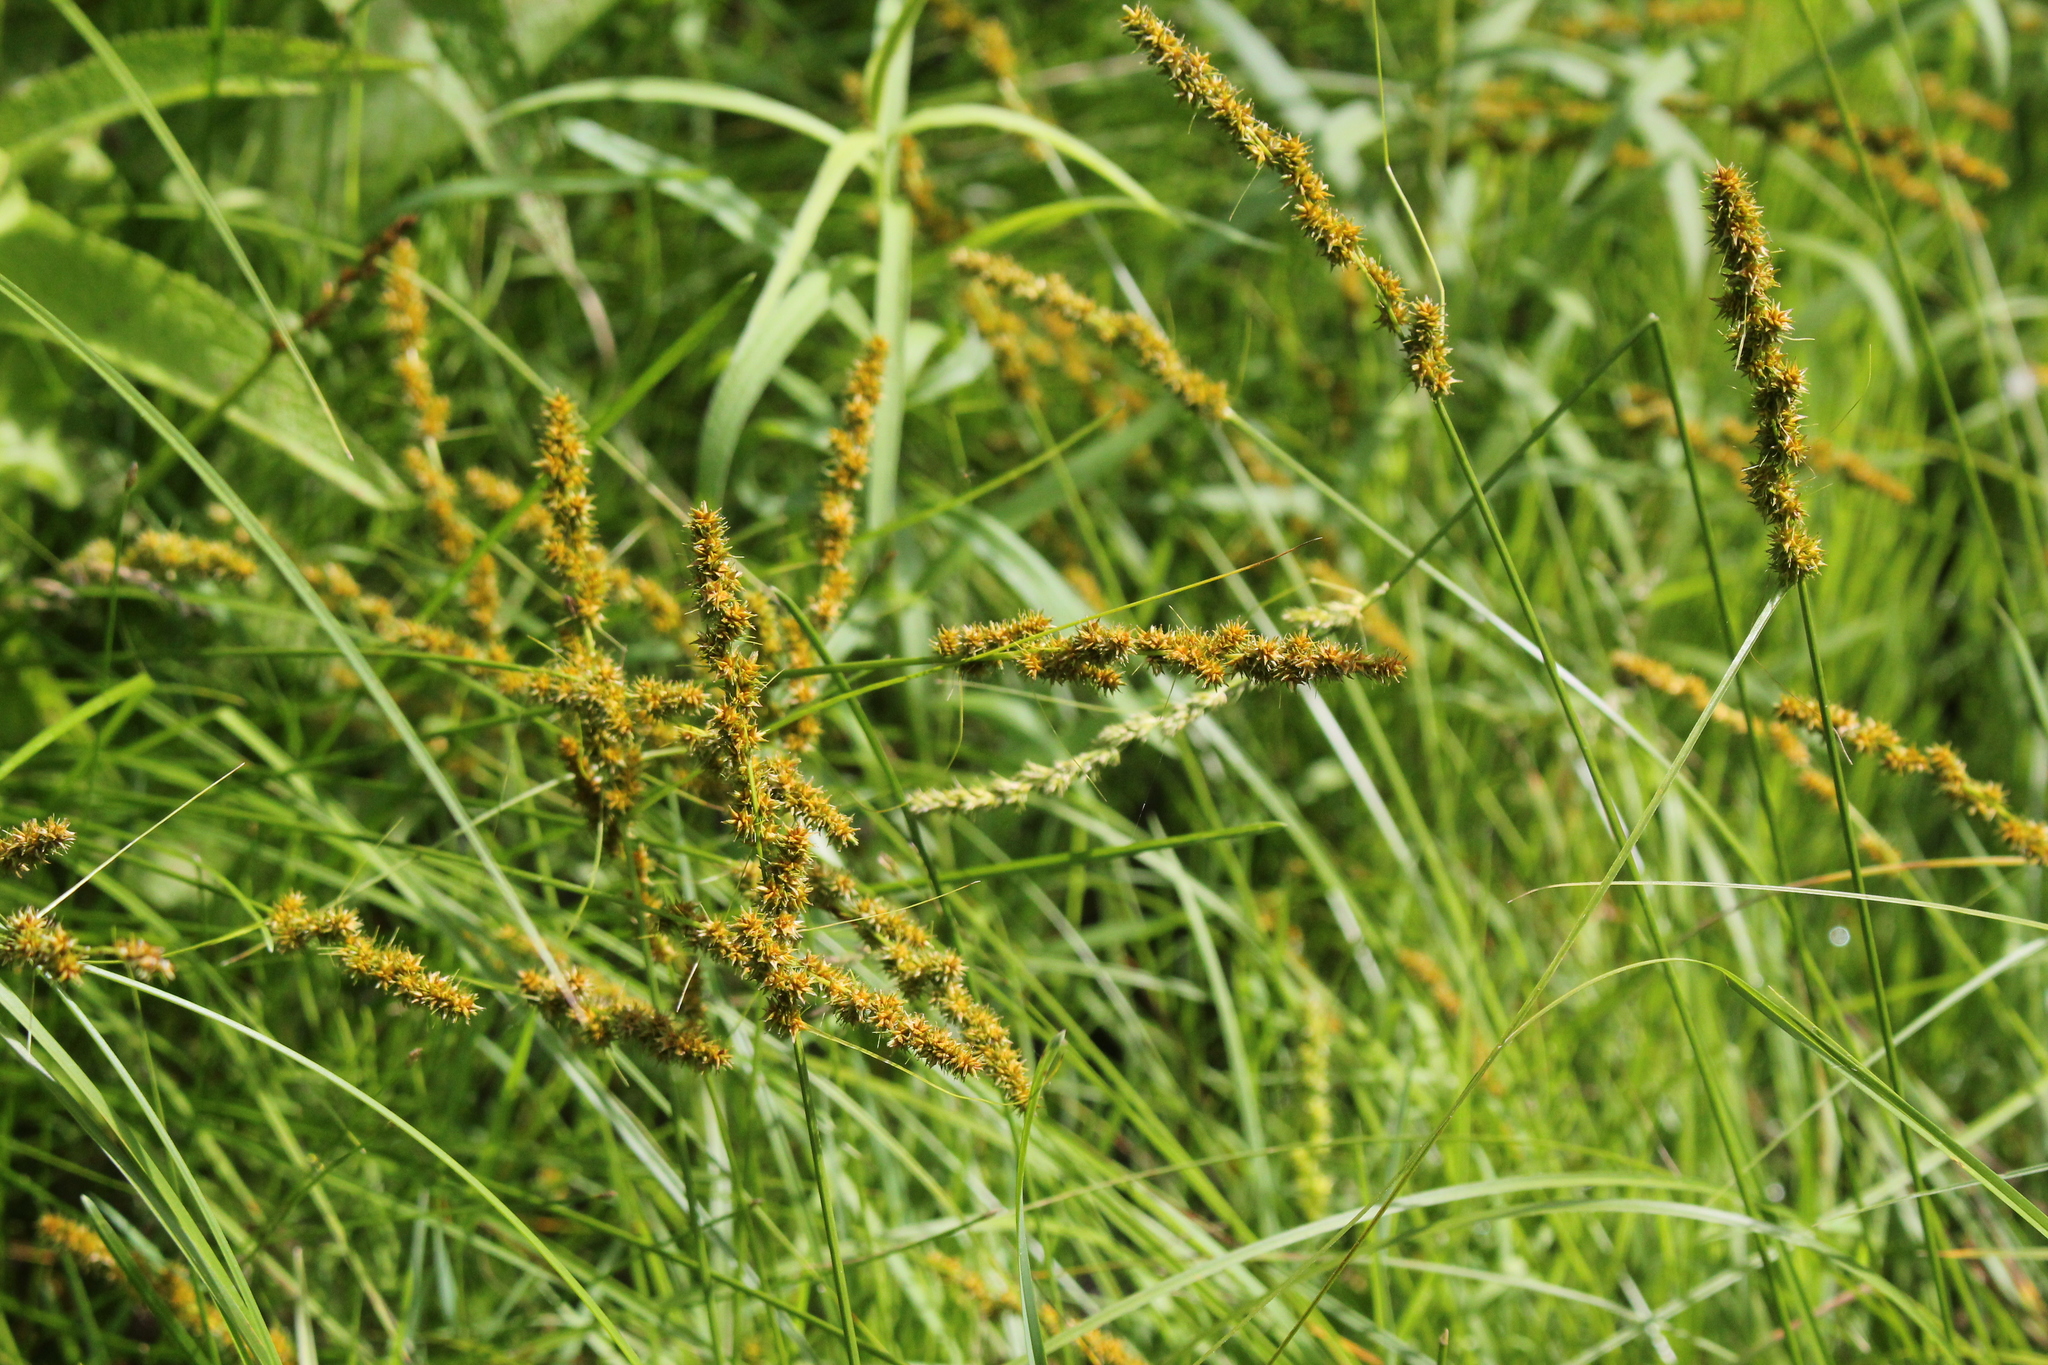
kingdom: Plantae
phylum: Tracheophyta
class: Liliopsida
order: Poales
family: Cyperaceae
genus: Carex
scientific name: Carex vulpinoidea
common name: American fox-sedge
